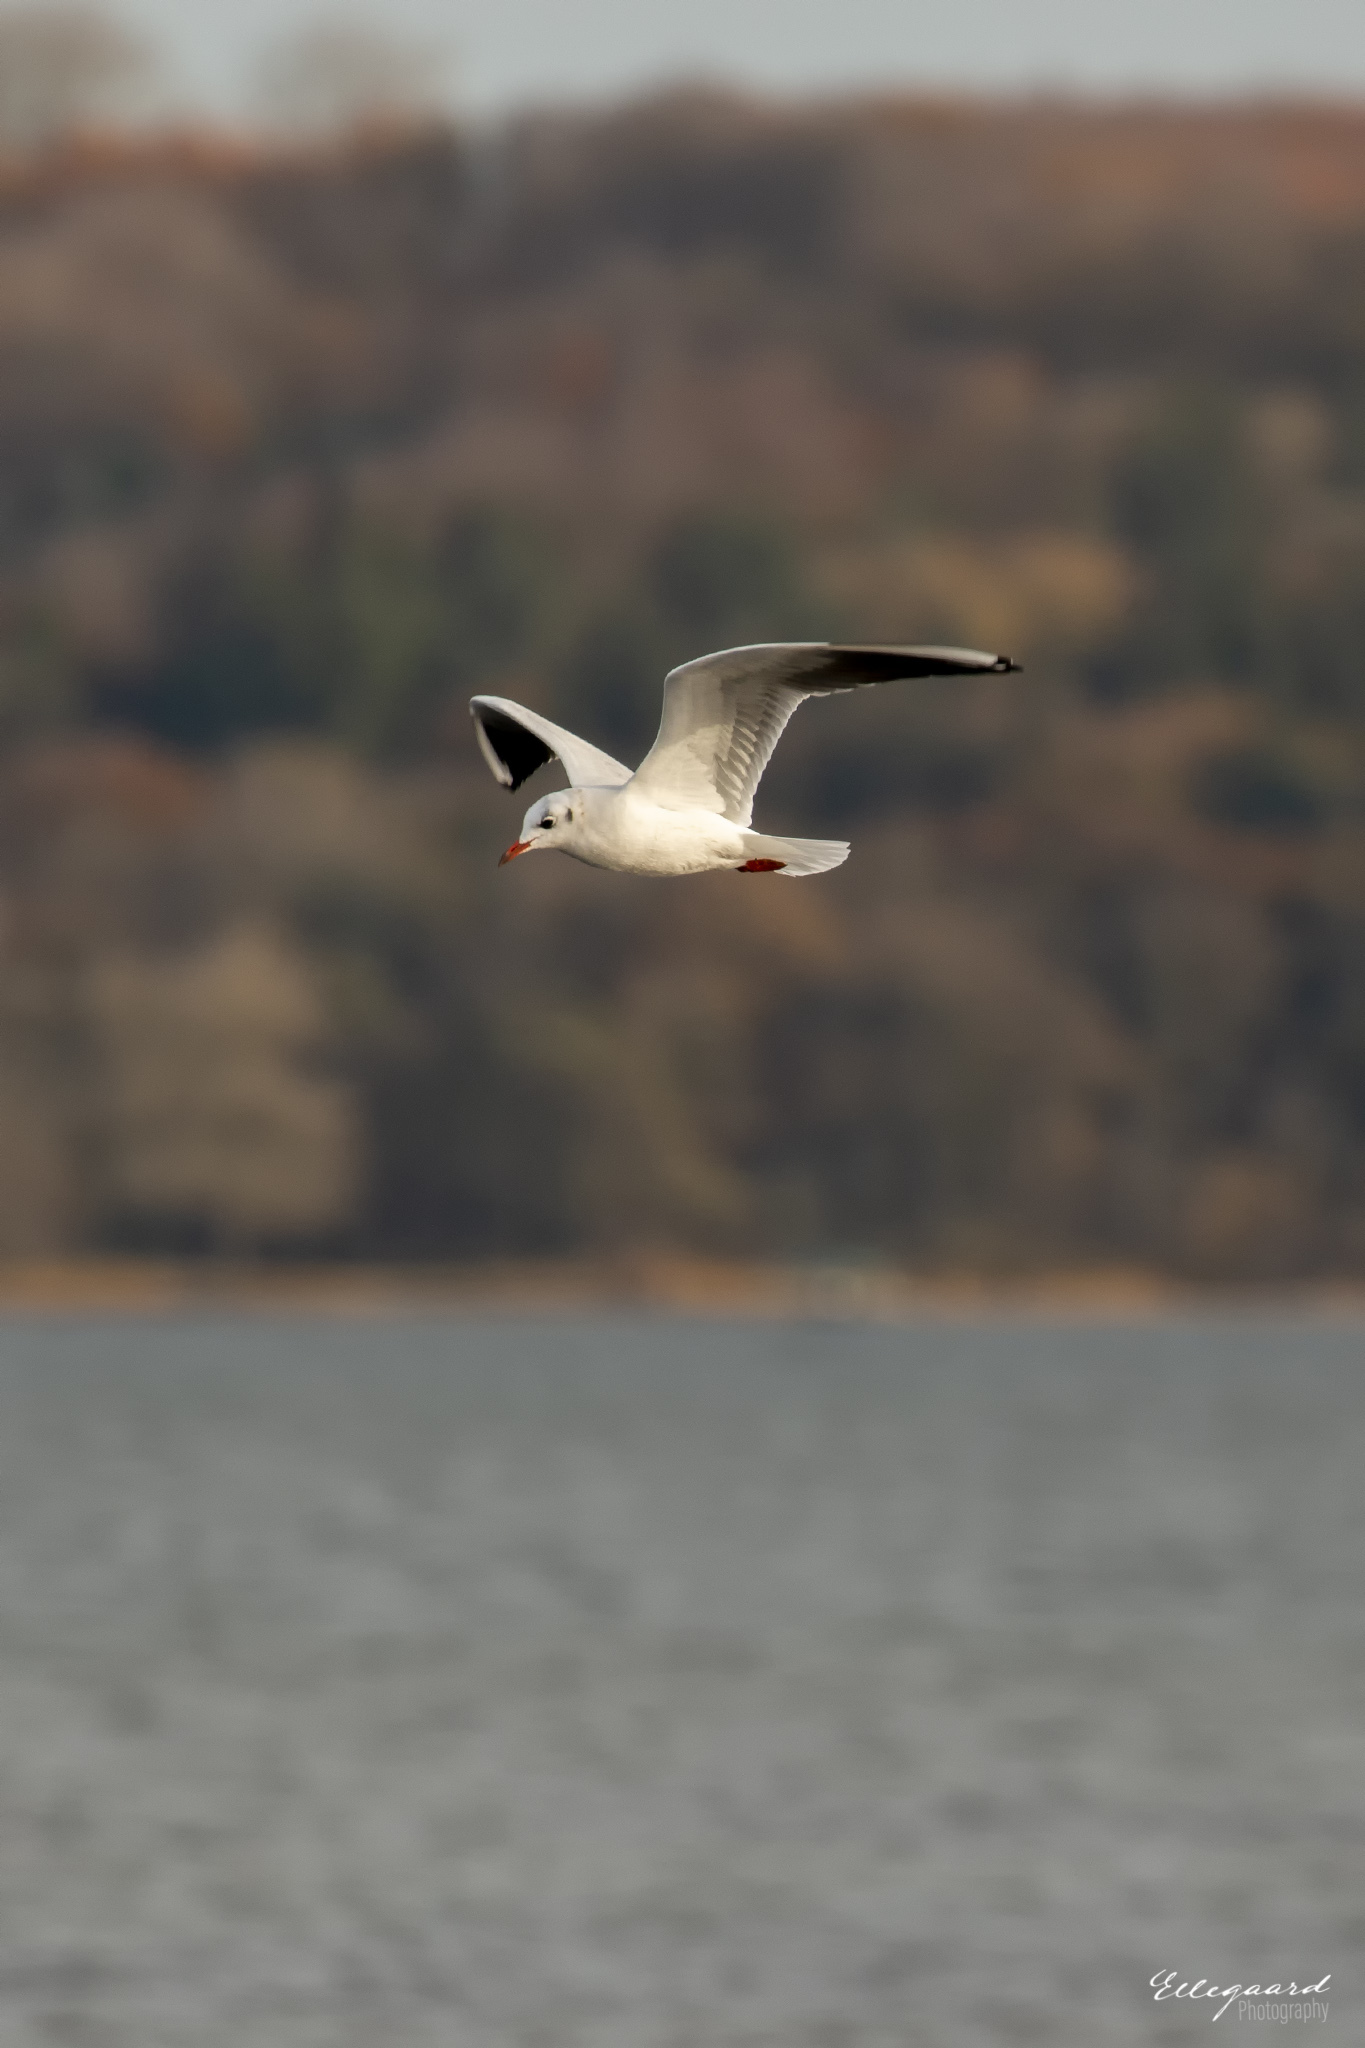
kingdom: Animalia
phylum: Chordata
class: Aves
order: Charadriiformes
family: Laridae
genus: Chroicocephalus
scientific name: Chroicocephalus ridibundus
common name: Black-headed gull
